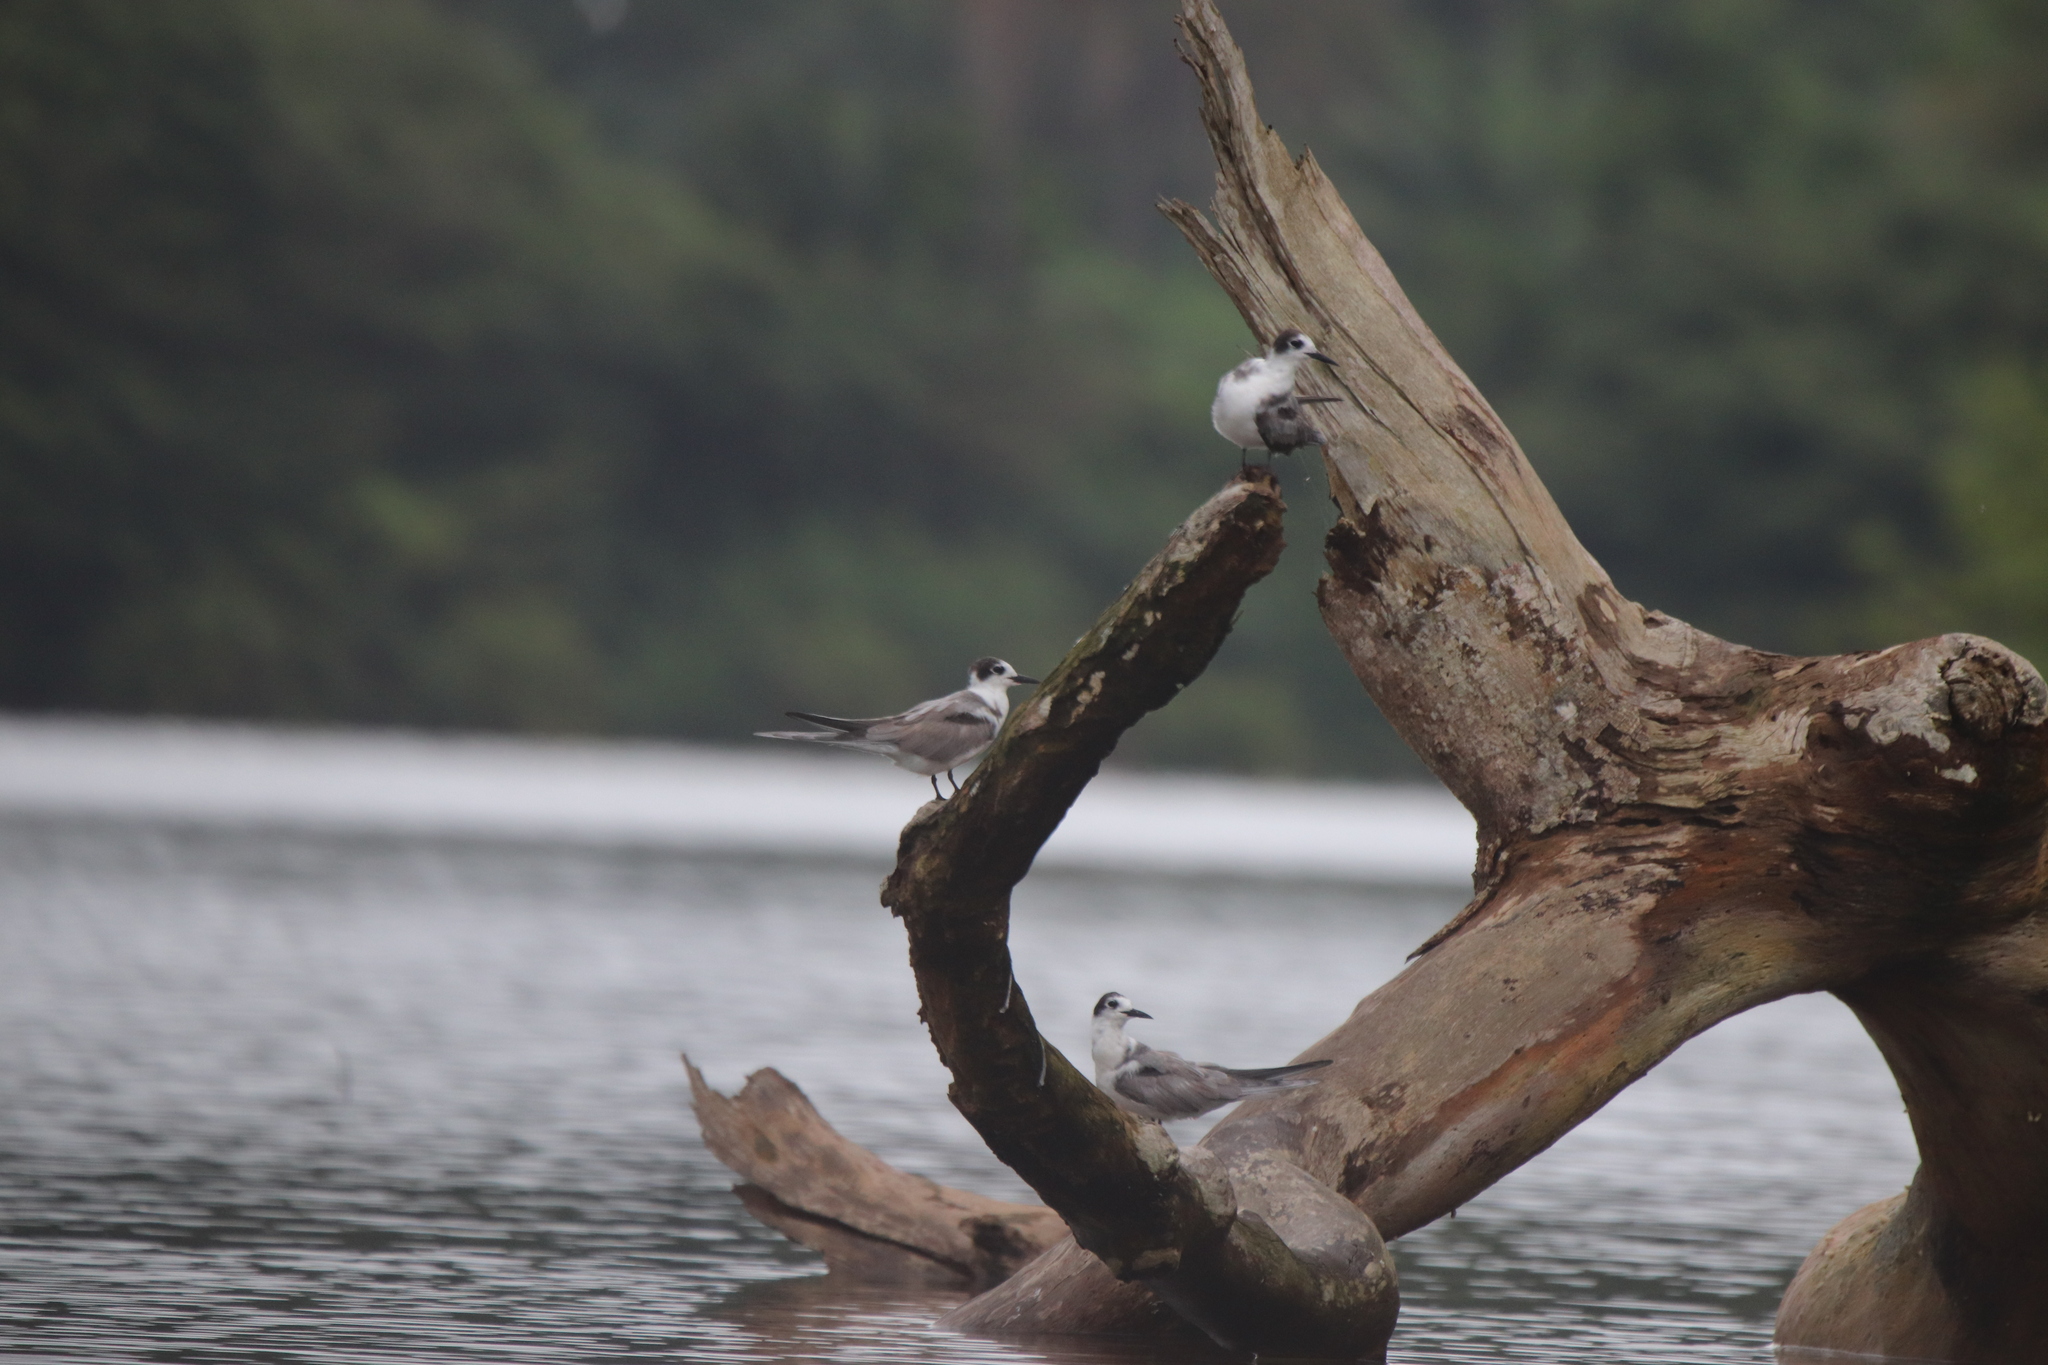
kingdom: Animalia
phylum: Chordata
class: Aves
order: Charadriiformes
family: Laridae
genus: Chlidonias
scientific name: Chlidonias niger
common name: Black tern
